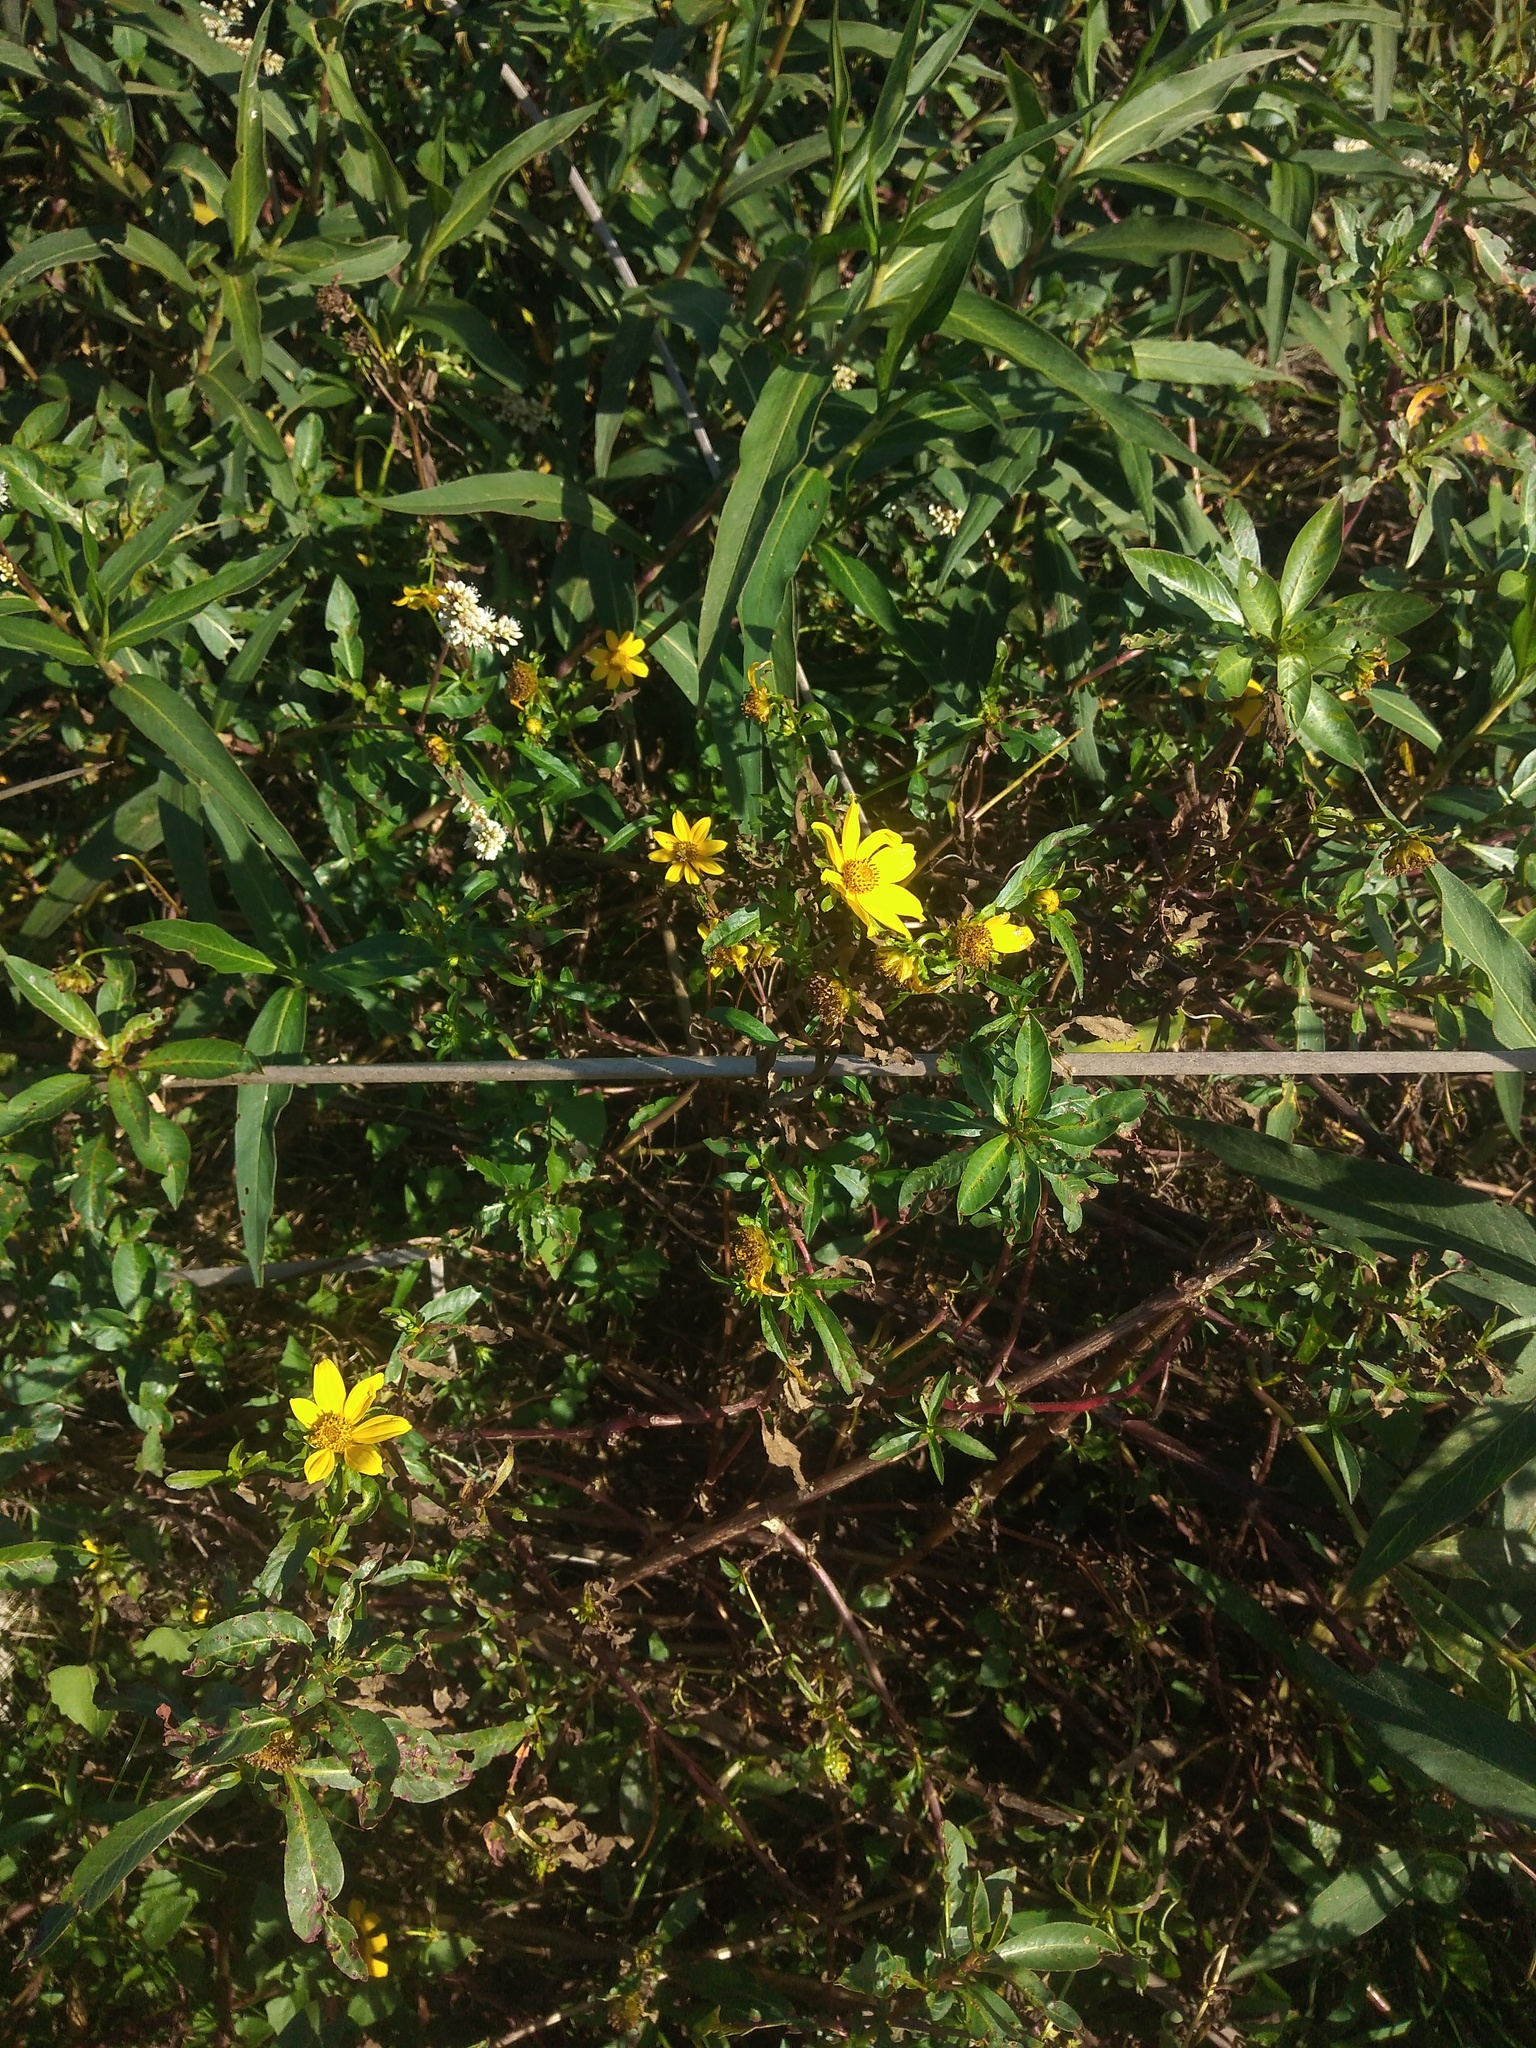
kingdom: Plantae
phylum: Tracheophyta
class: Magnoliopsida
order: Asterales
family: Asteraceae
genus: Bidens
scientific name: Bidens laevis
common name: Larger bur-marigold
